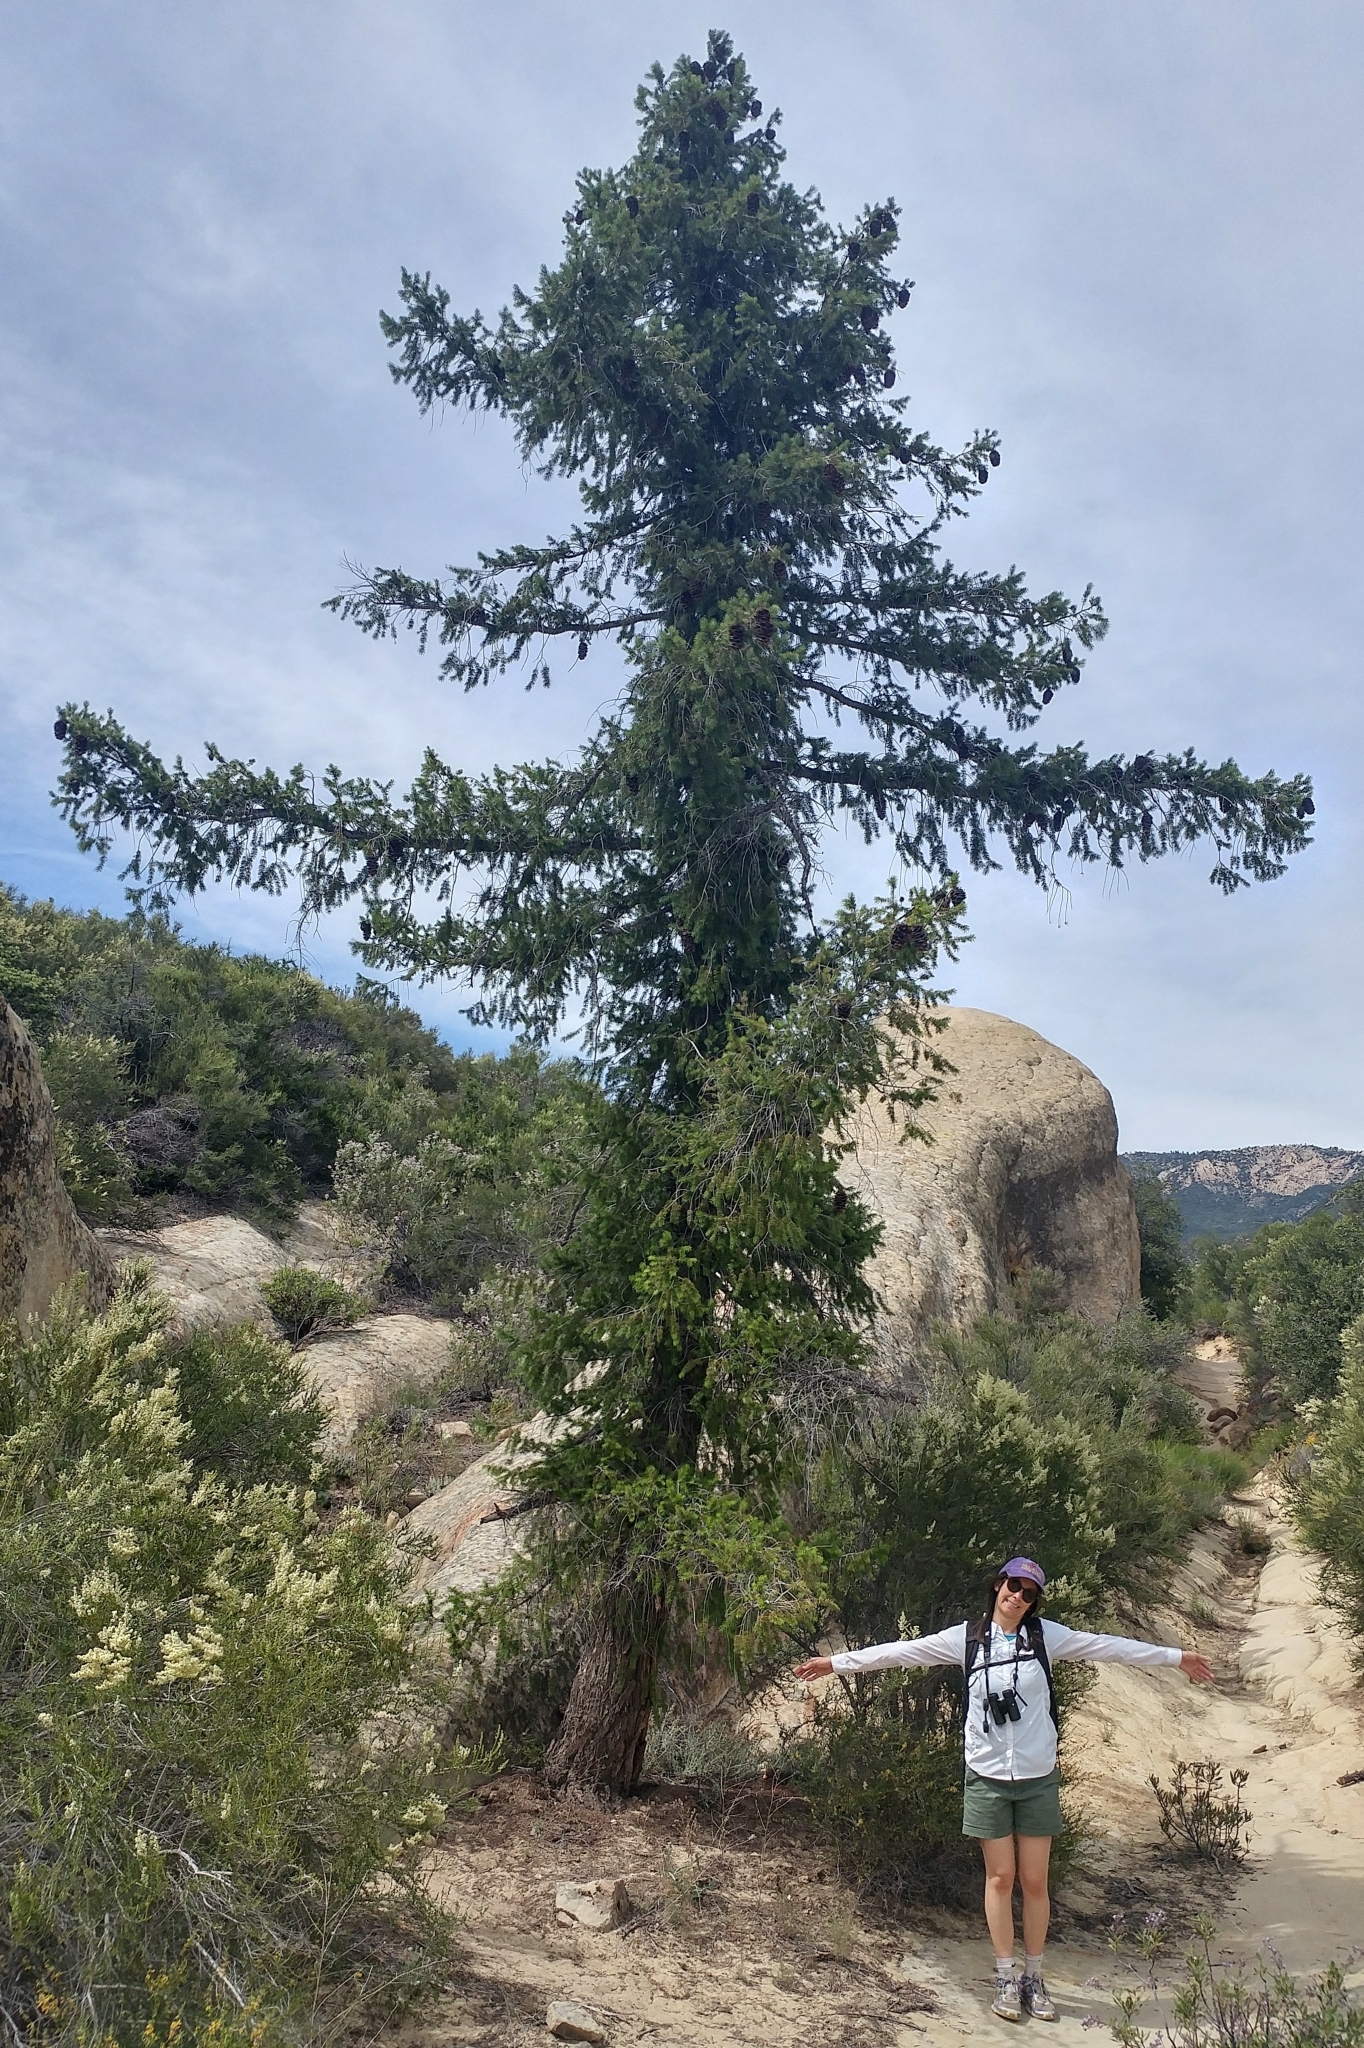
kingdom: Plantae
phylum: Tracheophyta
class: Pinopsida
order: Pinales
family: Pinaceae
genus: Pseudotsuga
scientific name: Pseudotsuga macrocarpa
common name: Big-cone douglas-fir
